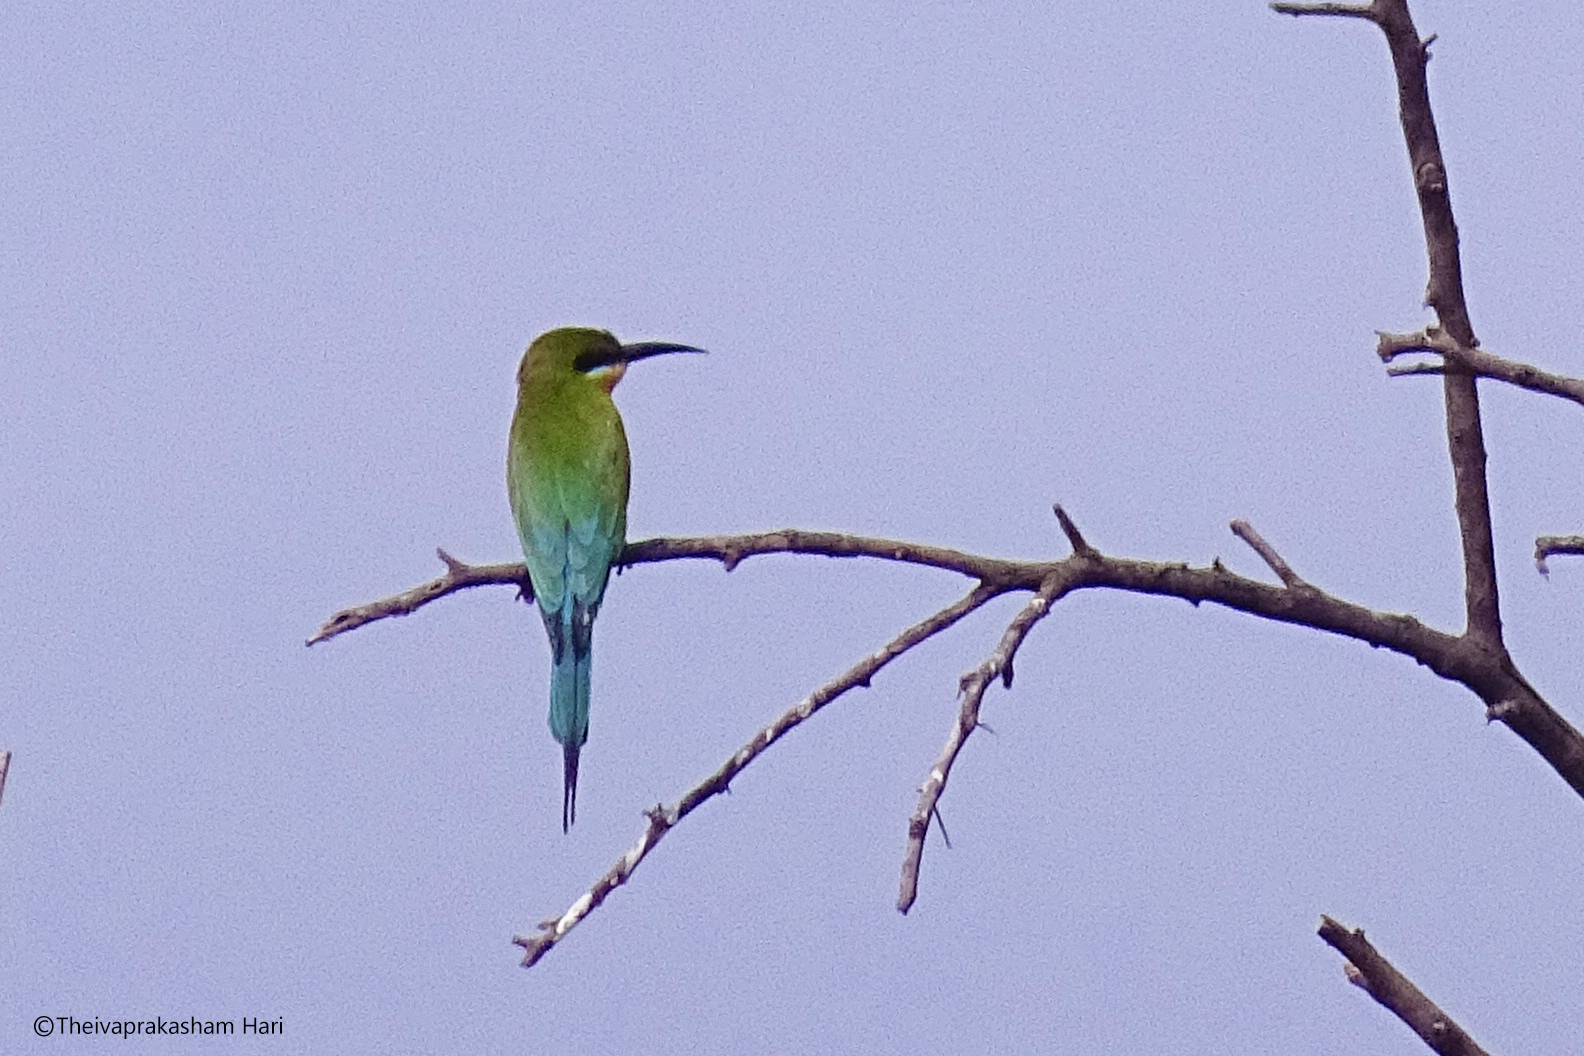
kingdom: Animalia
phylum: Chordata
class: Aves
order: Coraciiformes
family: Meropidae
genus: Merops
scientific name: Merops philippinus
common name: Blue-tailed bee-eater
